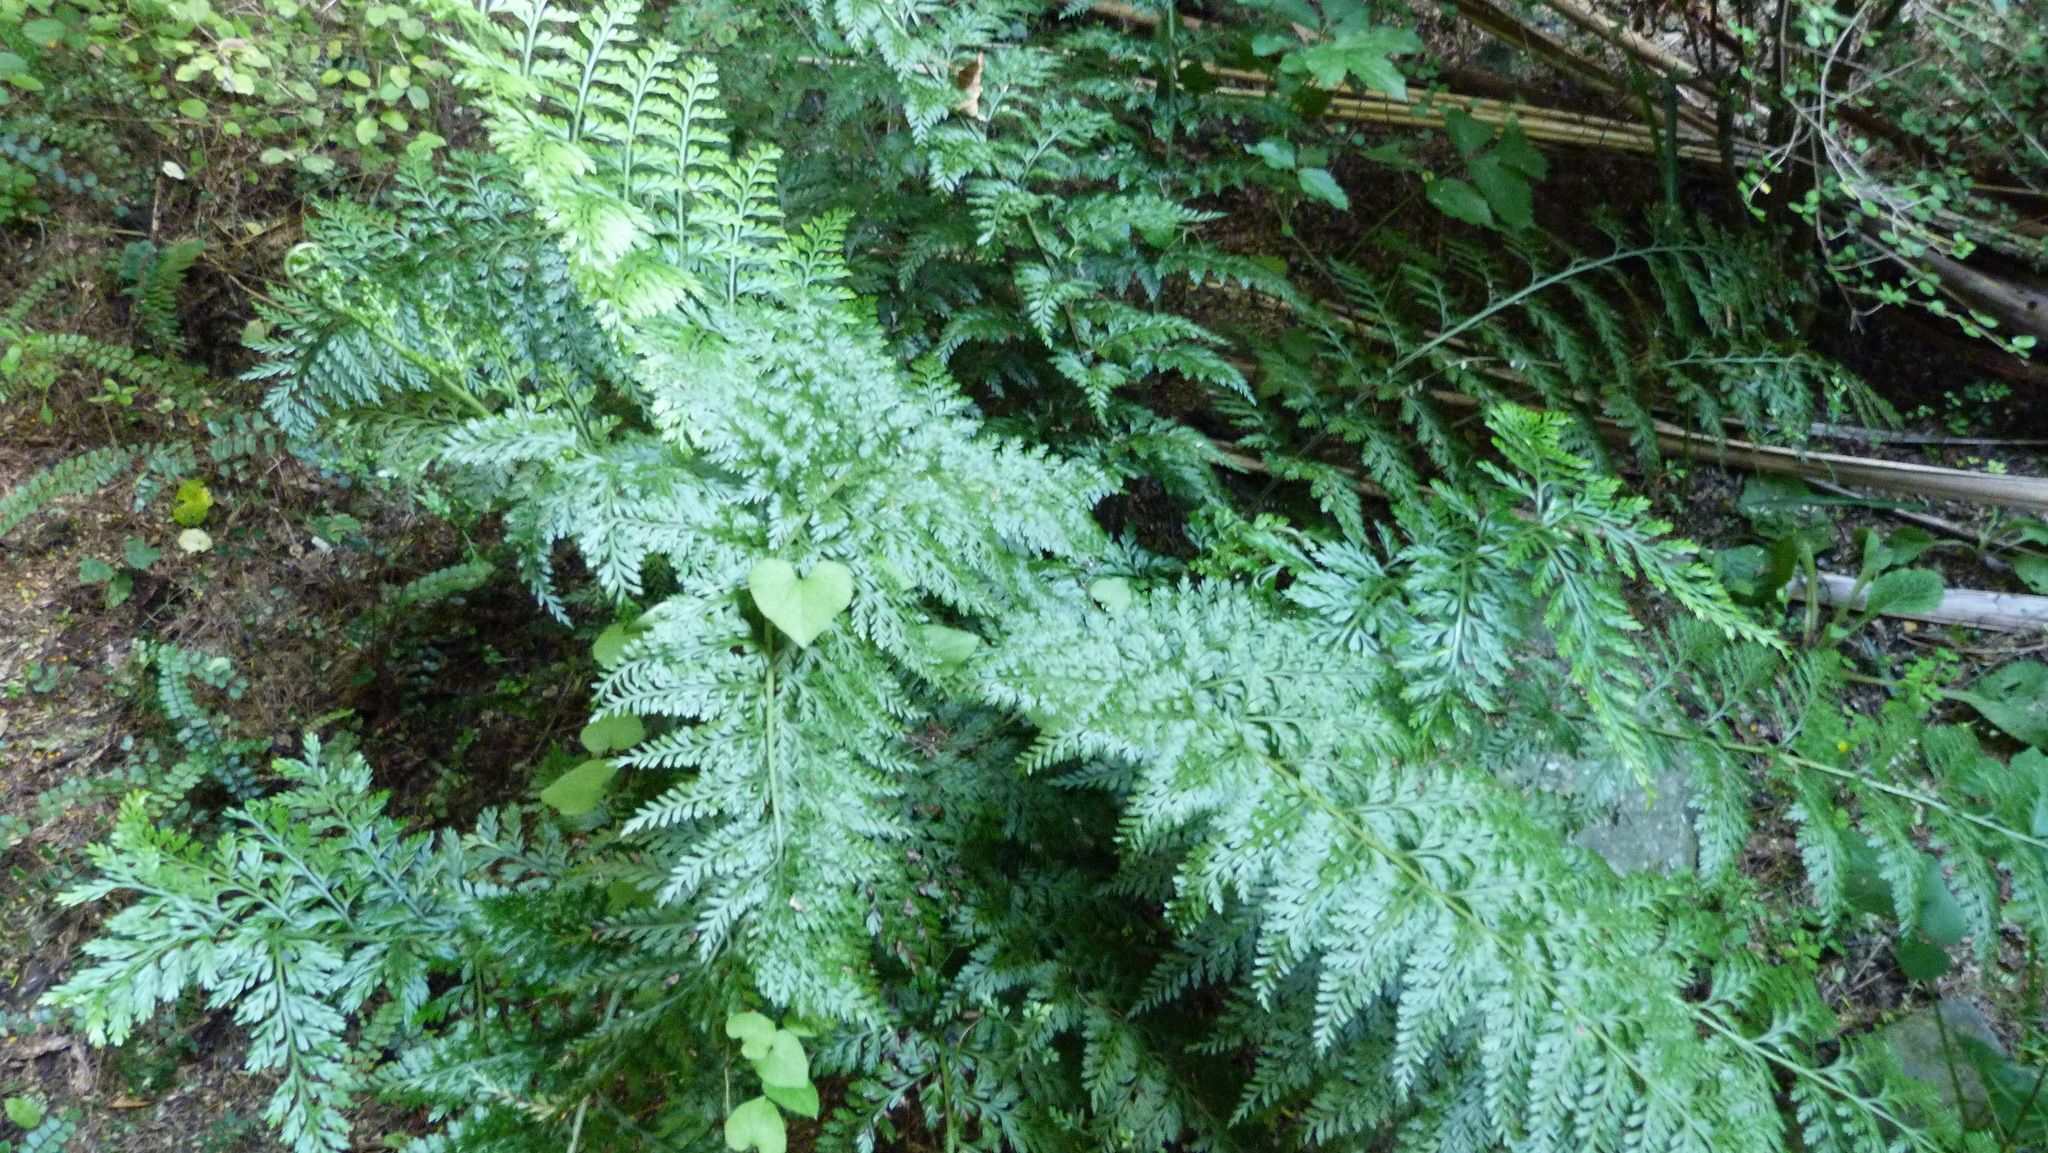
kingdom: Plantae
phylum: Tracheophyta
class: Polypodiopsida
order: Polypodiales
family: Aspleniaceae
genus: Asplenium
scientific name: Asplenium
